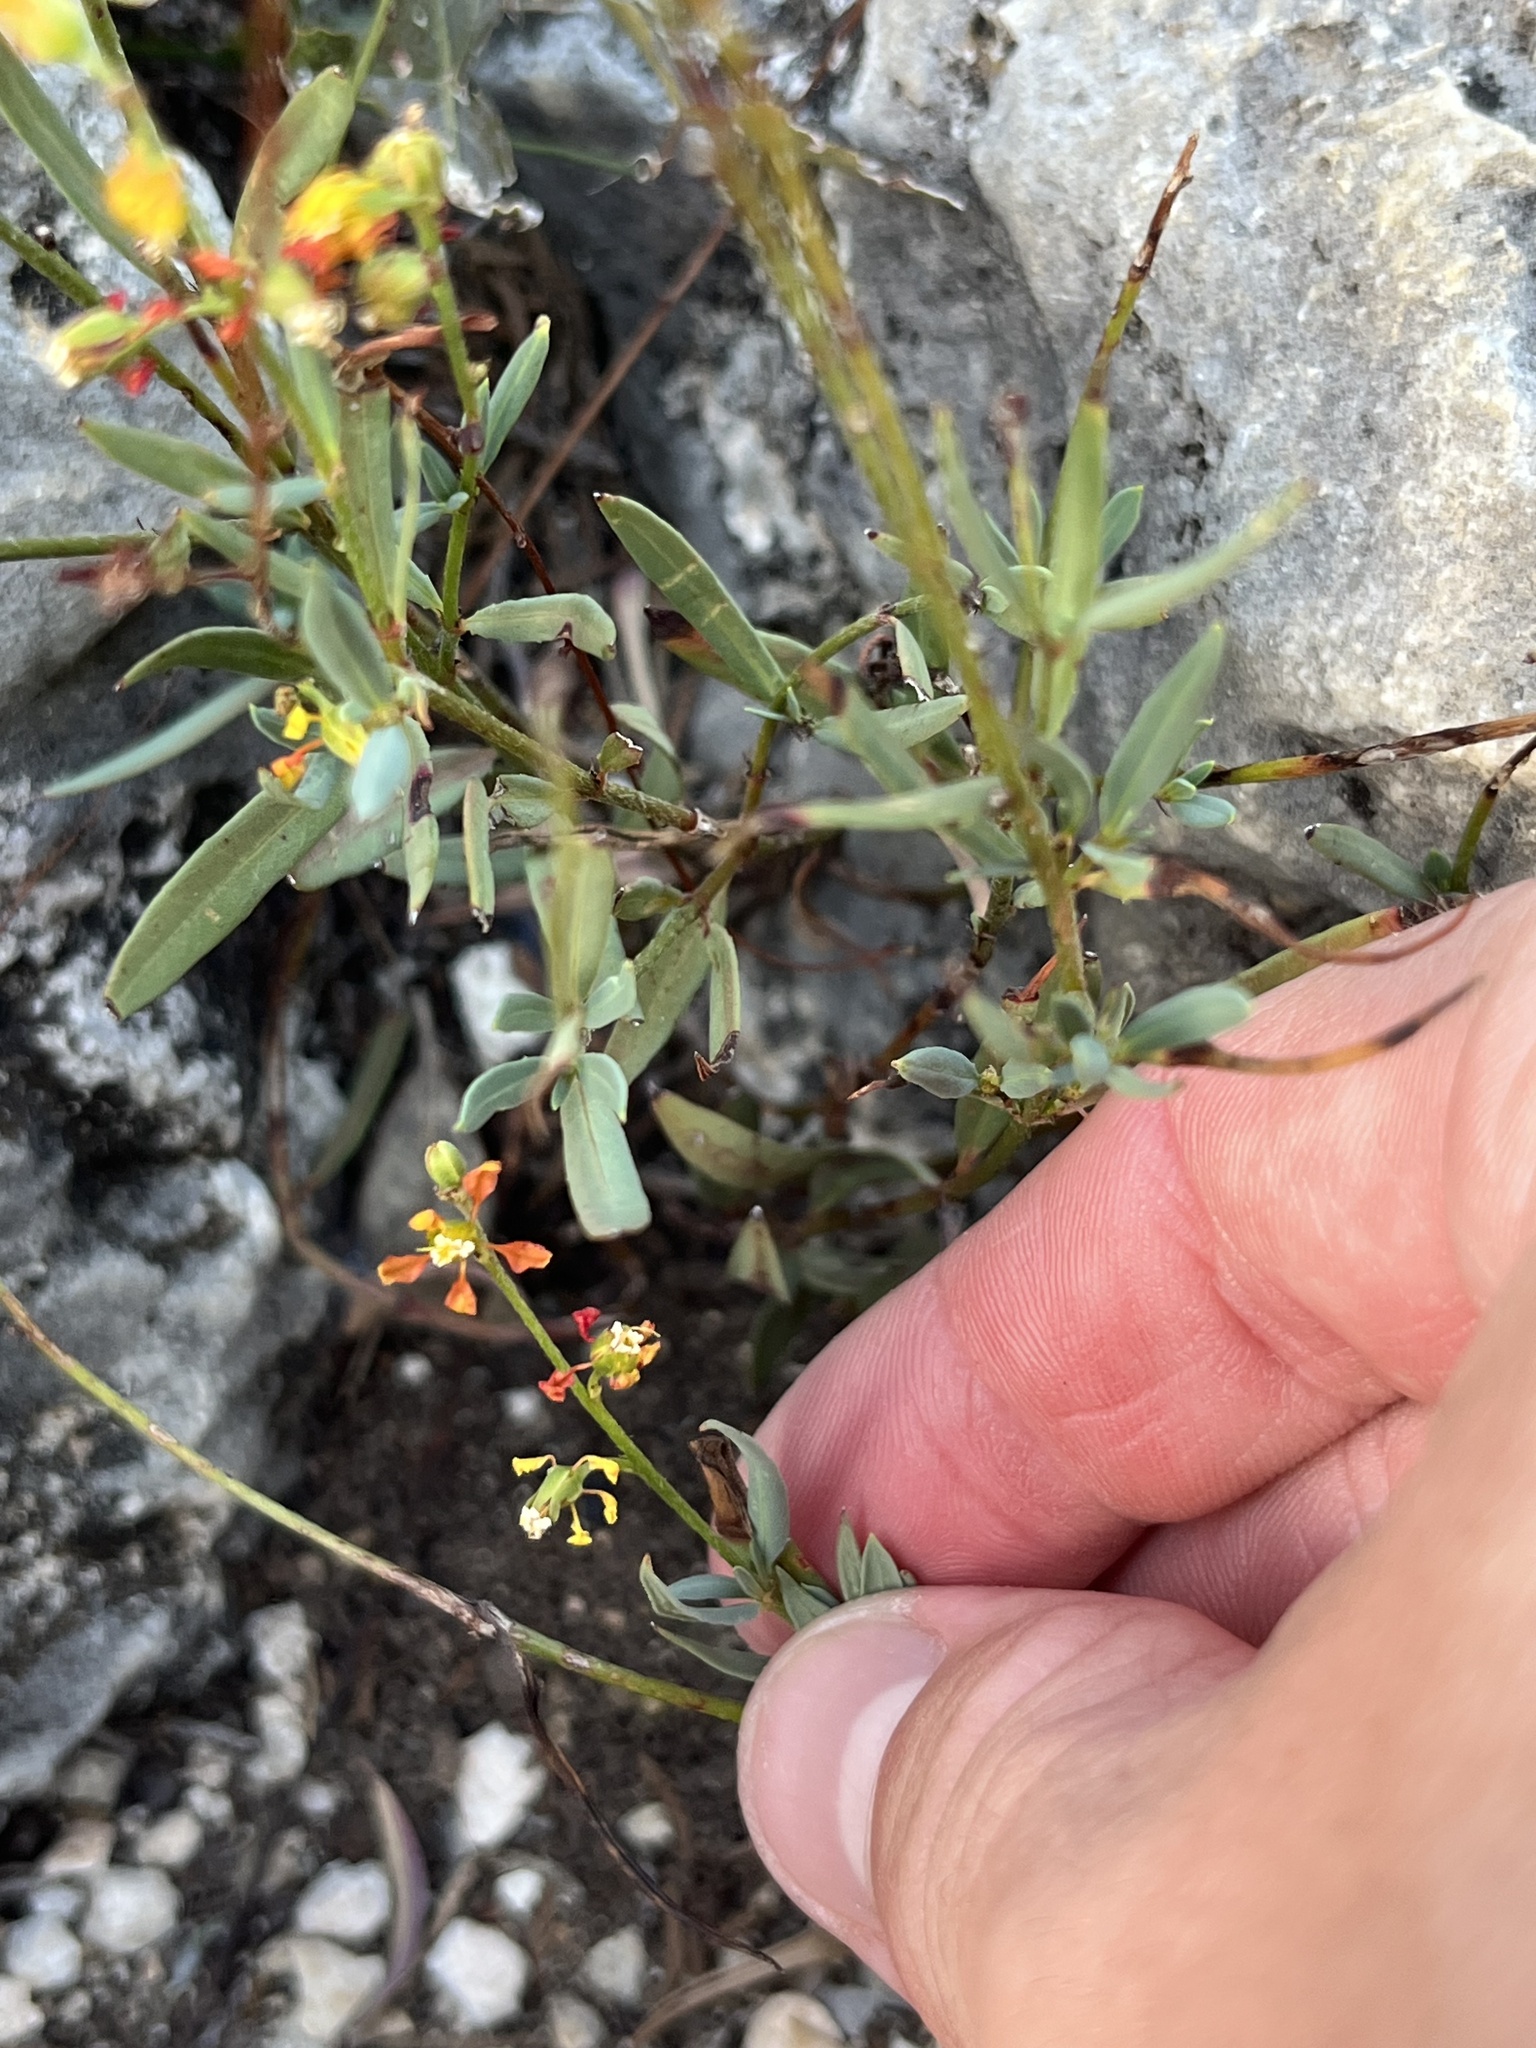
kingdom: Plantae
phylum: Tracheophyta
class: Magnoliopsida
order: Malpighiales
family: Malpighiaceae
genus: Galphimia
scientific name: Galphimia angustifolia
